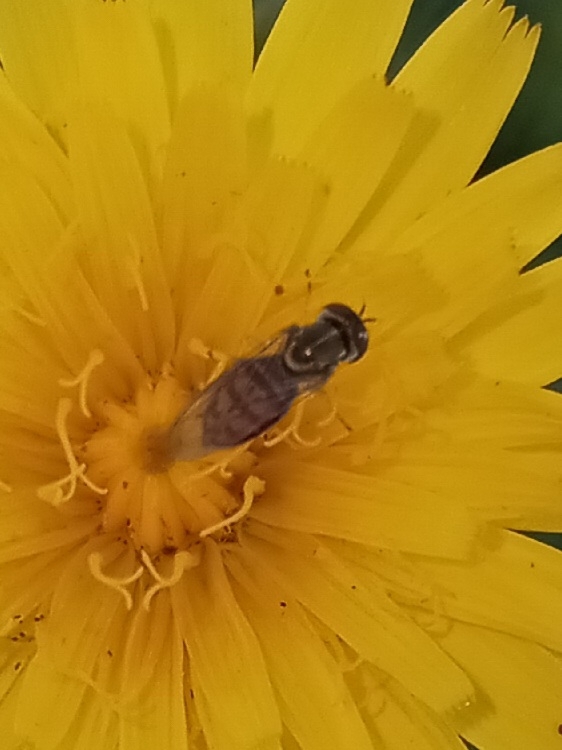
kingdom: Animalia
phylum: Arthropoda
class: Insecta
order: Diptera
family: Syrphidae
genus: Toxomerus
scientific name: Toxomerus marginatus
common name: Syrphid fly
